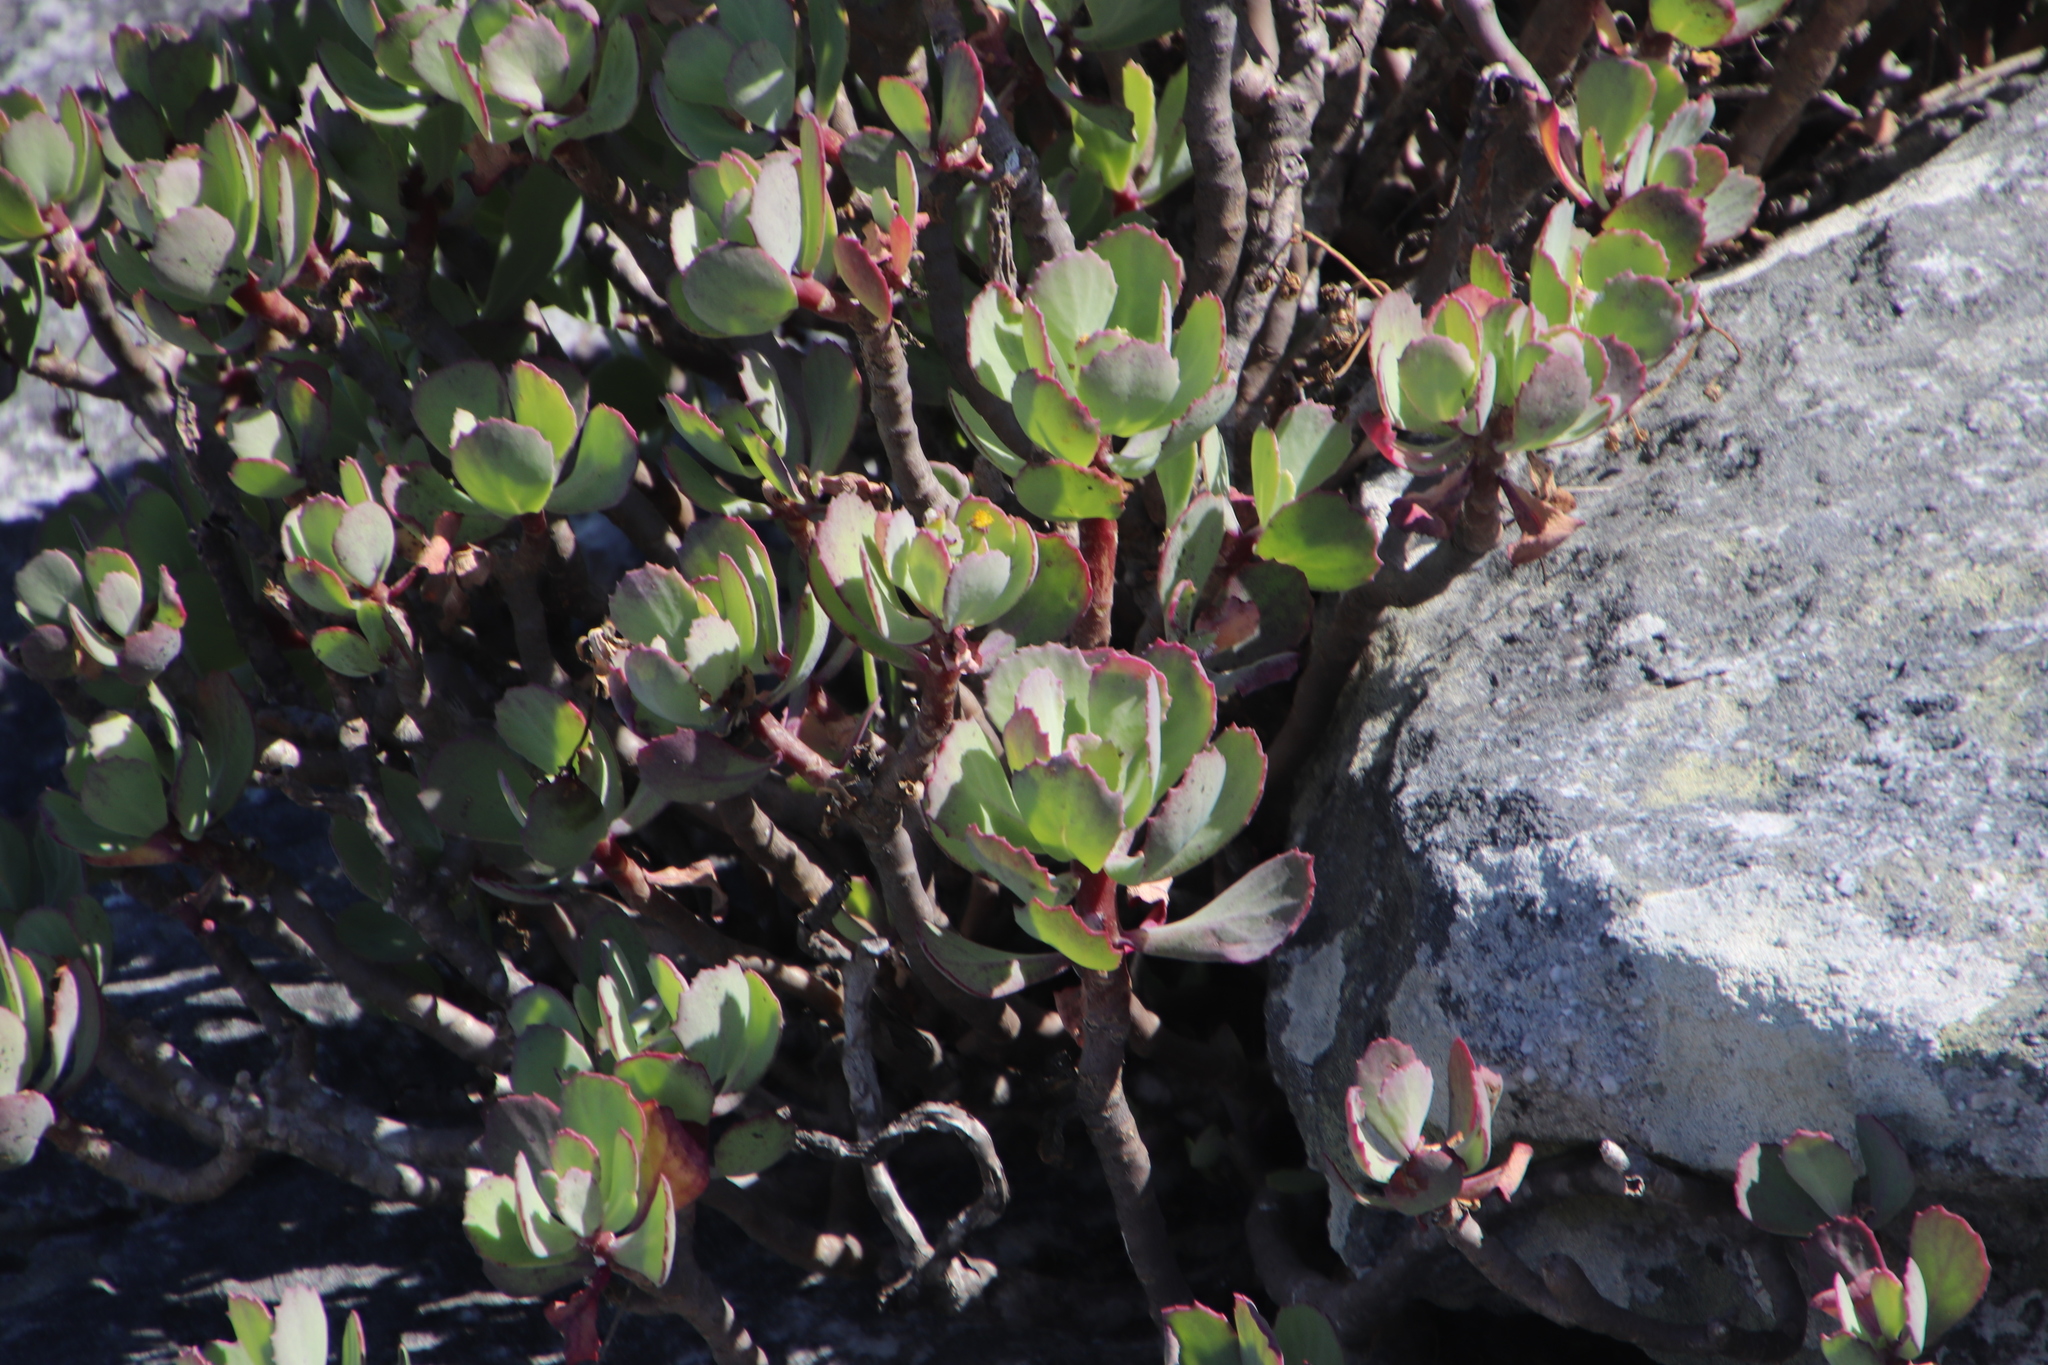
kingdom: Plantae
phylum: Tracheophyta
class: Magnoliopsida
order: Asterales
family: Asteraceae
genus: Othonna
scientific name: Othonna dentata
